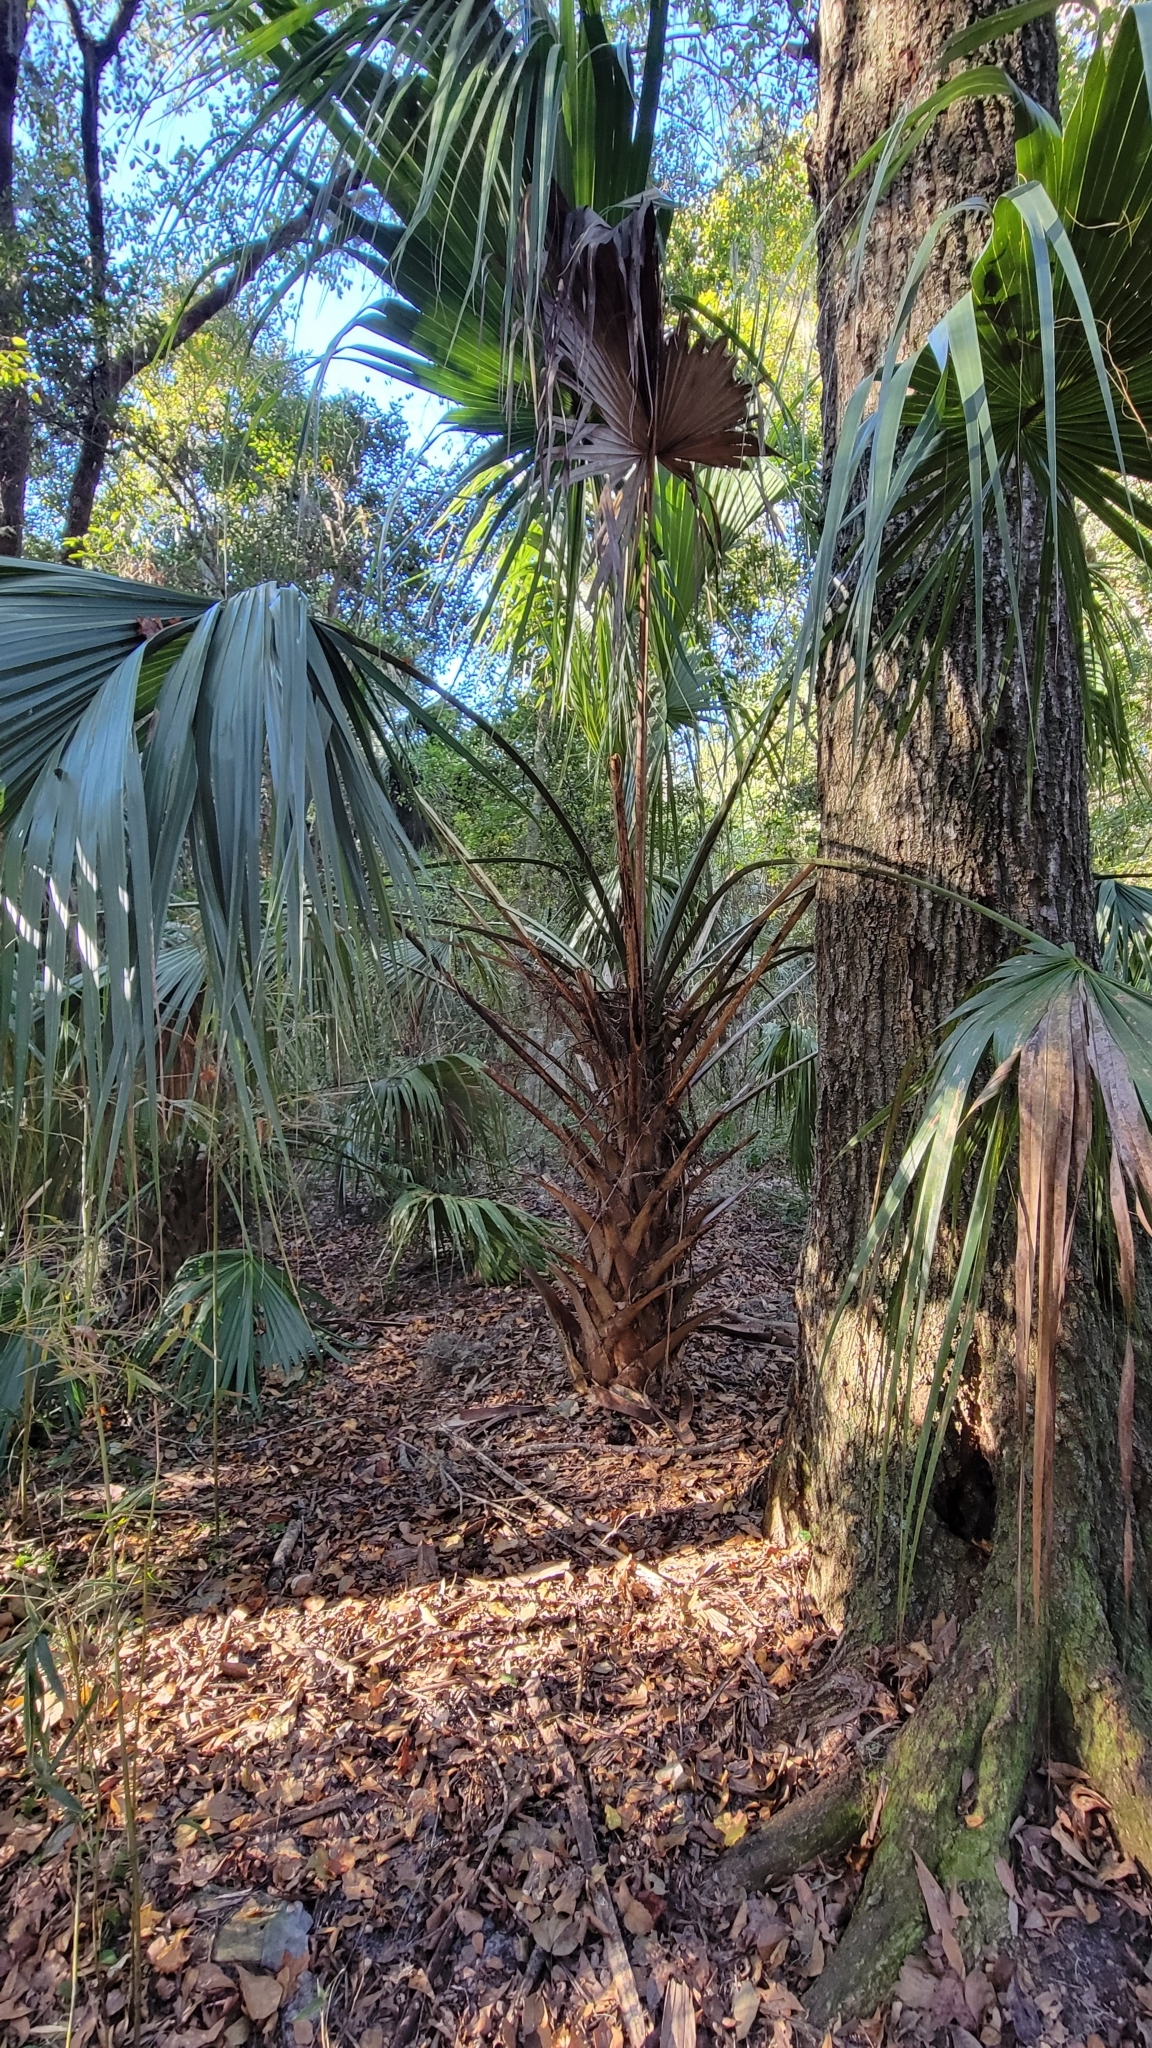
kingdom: Plantae
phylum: Tracheophyta
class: Liliopsida
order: Arecales
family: Arecaceae
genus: Sabal
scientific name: Sabal palmetto
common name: Blue palmetto
